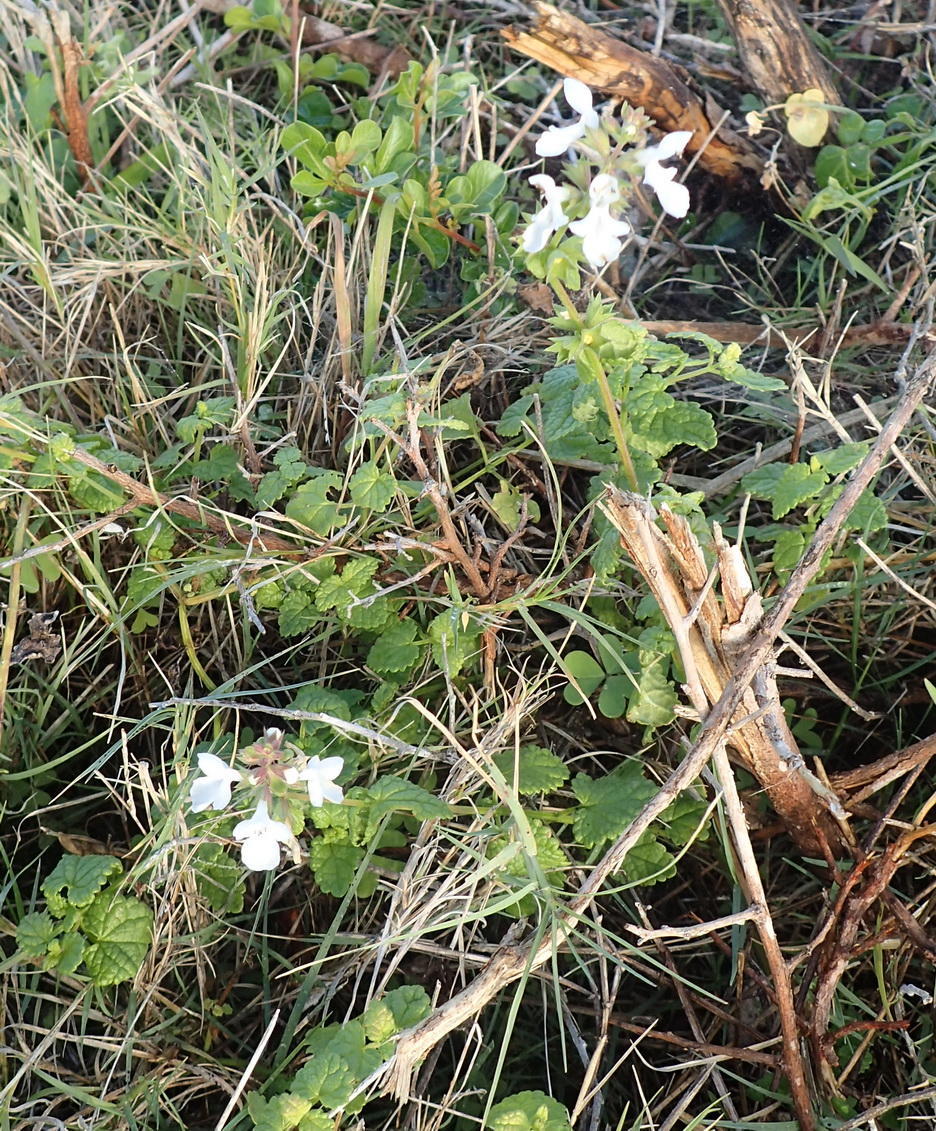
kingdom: Plantae
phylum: Tracheophyta
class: Magnoliopsida
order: Lamiales
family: Lamiaceae
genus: Stachys
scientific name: Stachys aethiopica
